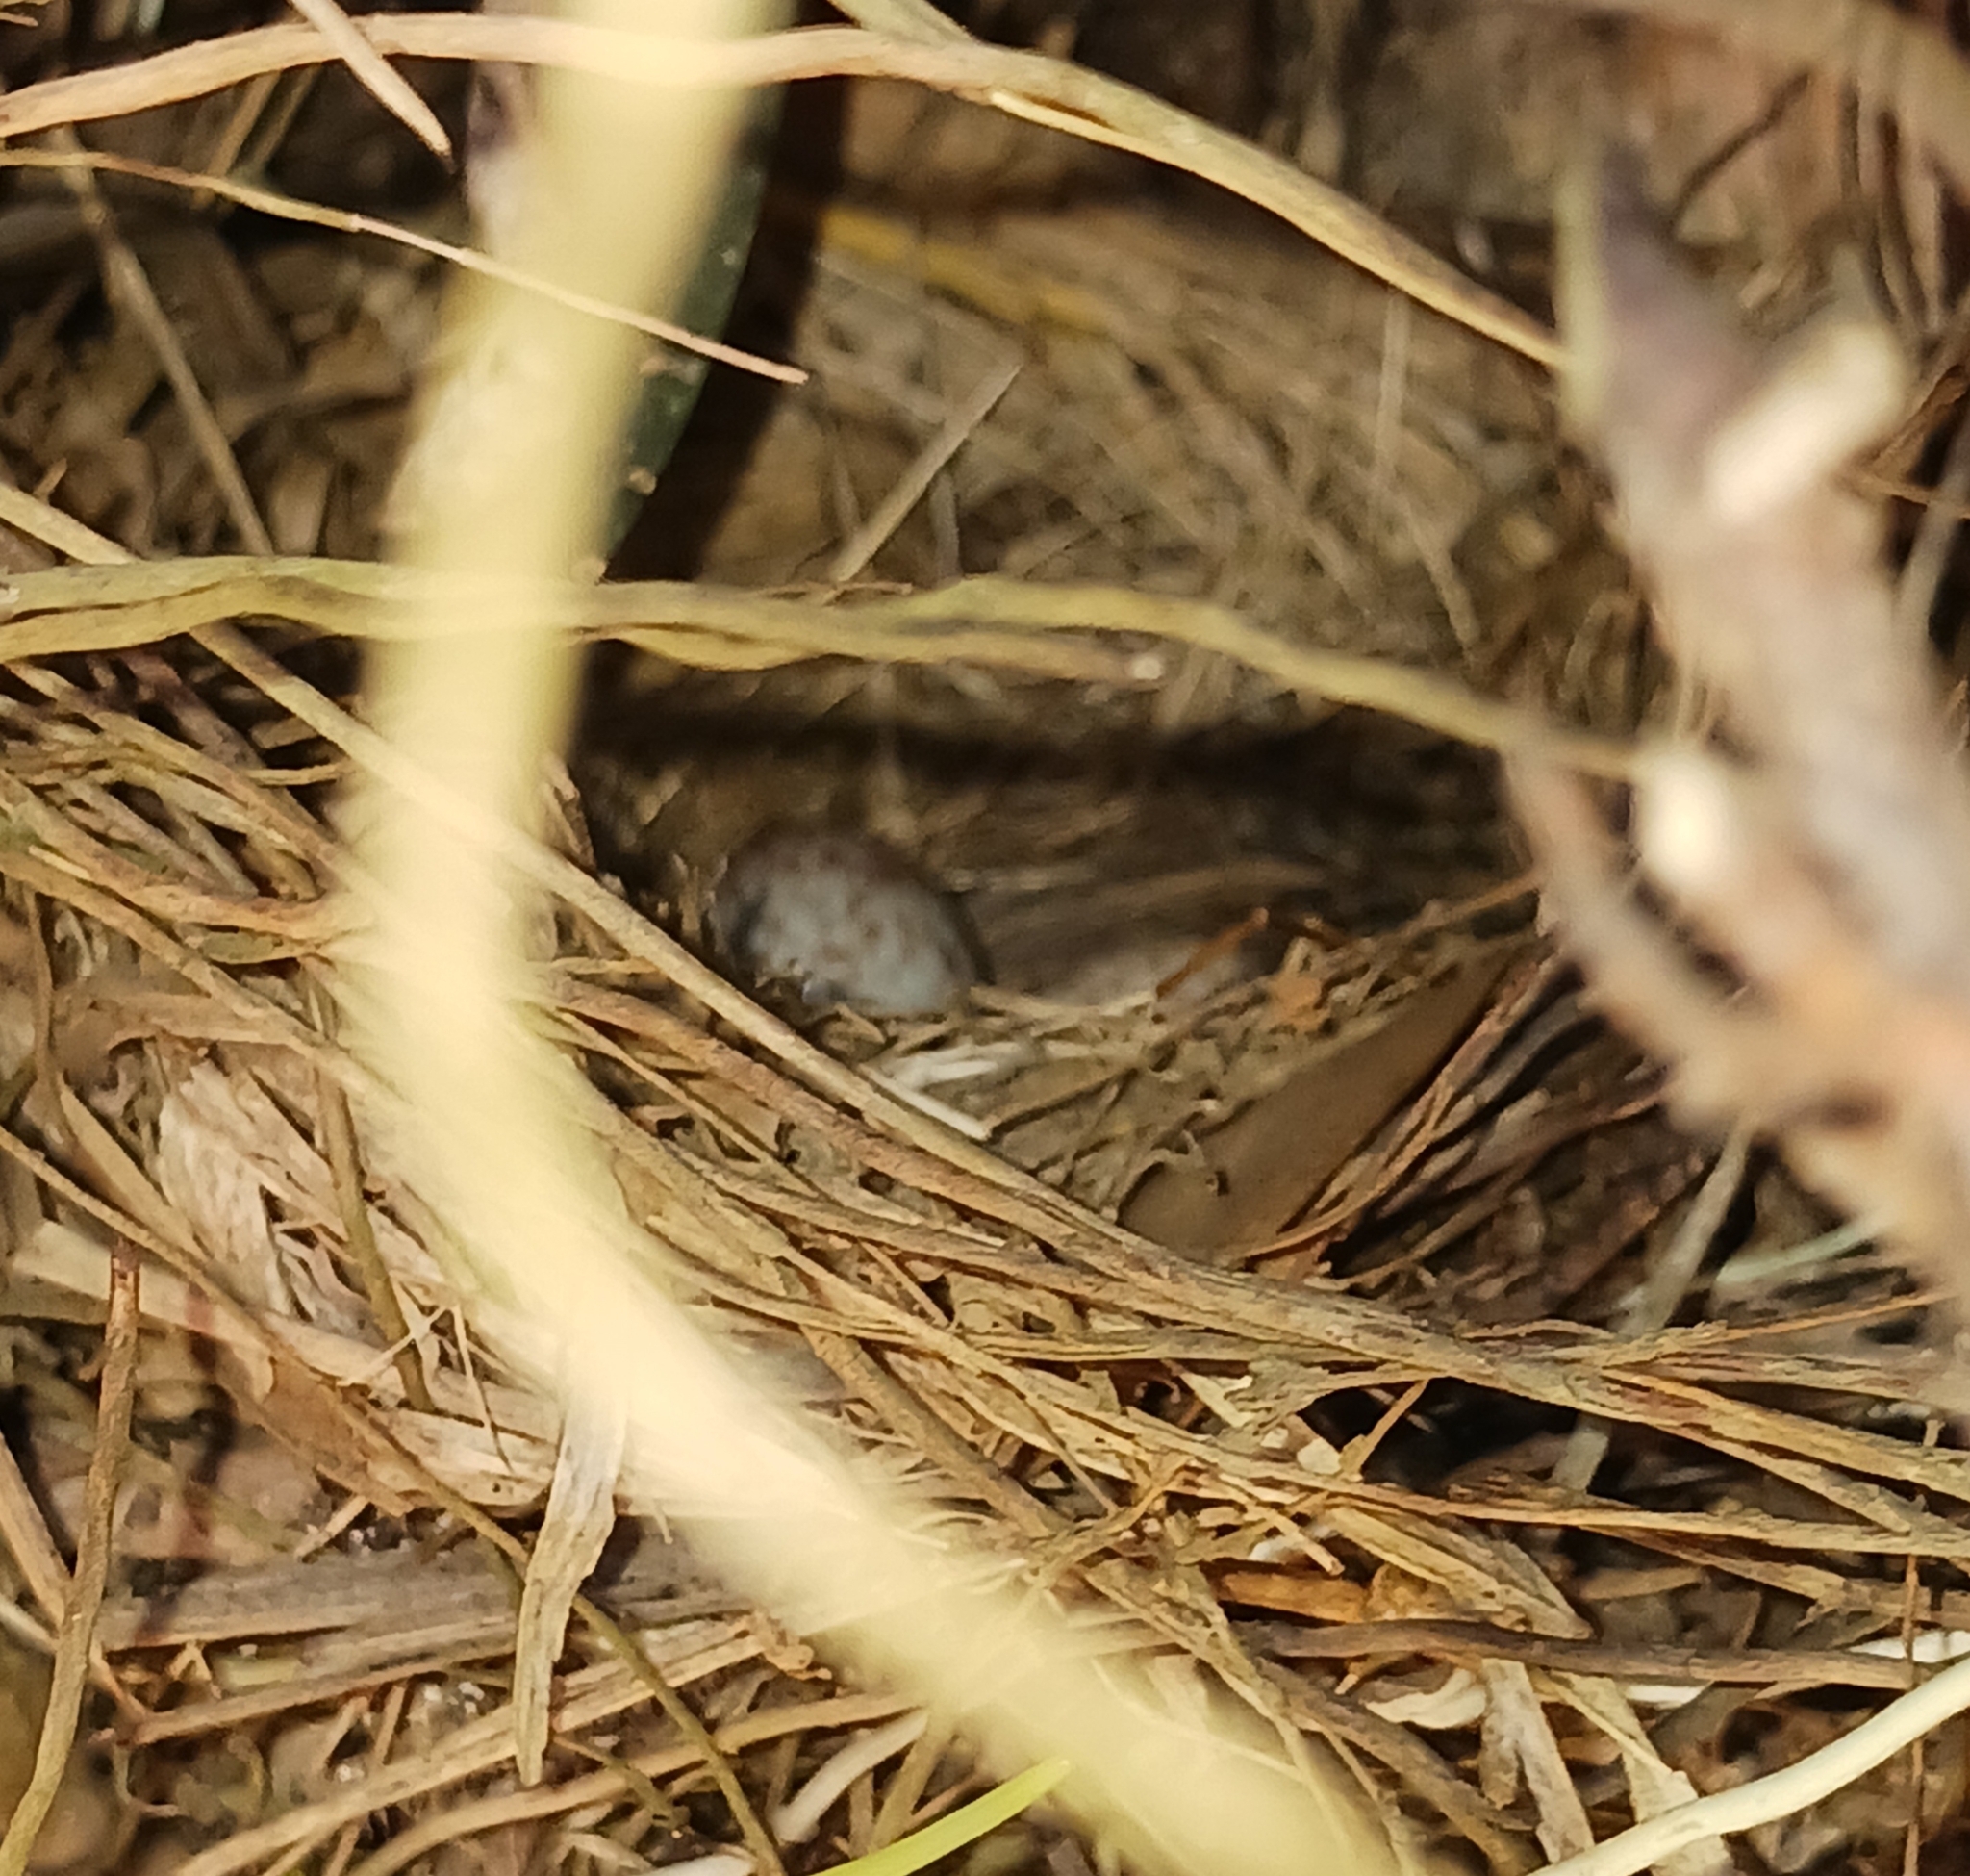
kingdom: Animalia
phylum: Chordata
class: Aves
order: Passeriformes
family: Passerellidae
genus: Zonotrichia
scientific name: Zonotrichia capensis
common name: Rufous-collared sparrow
